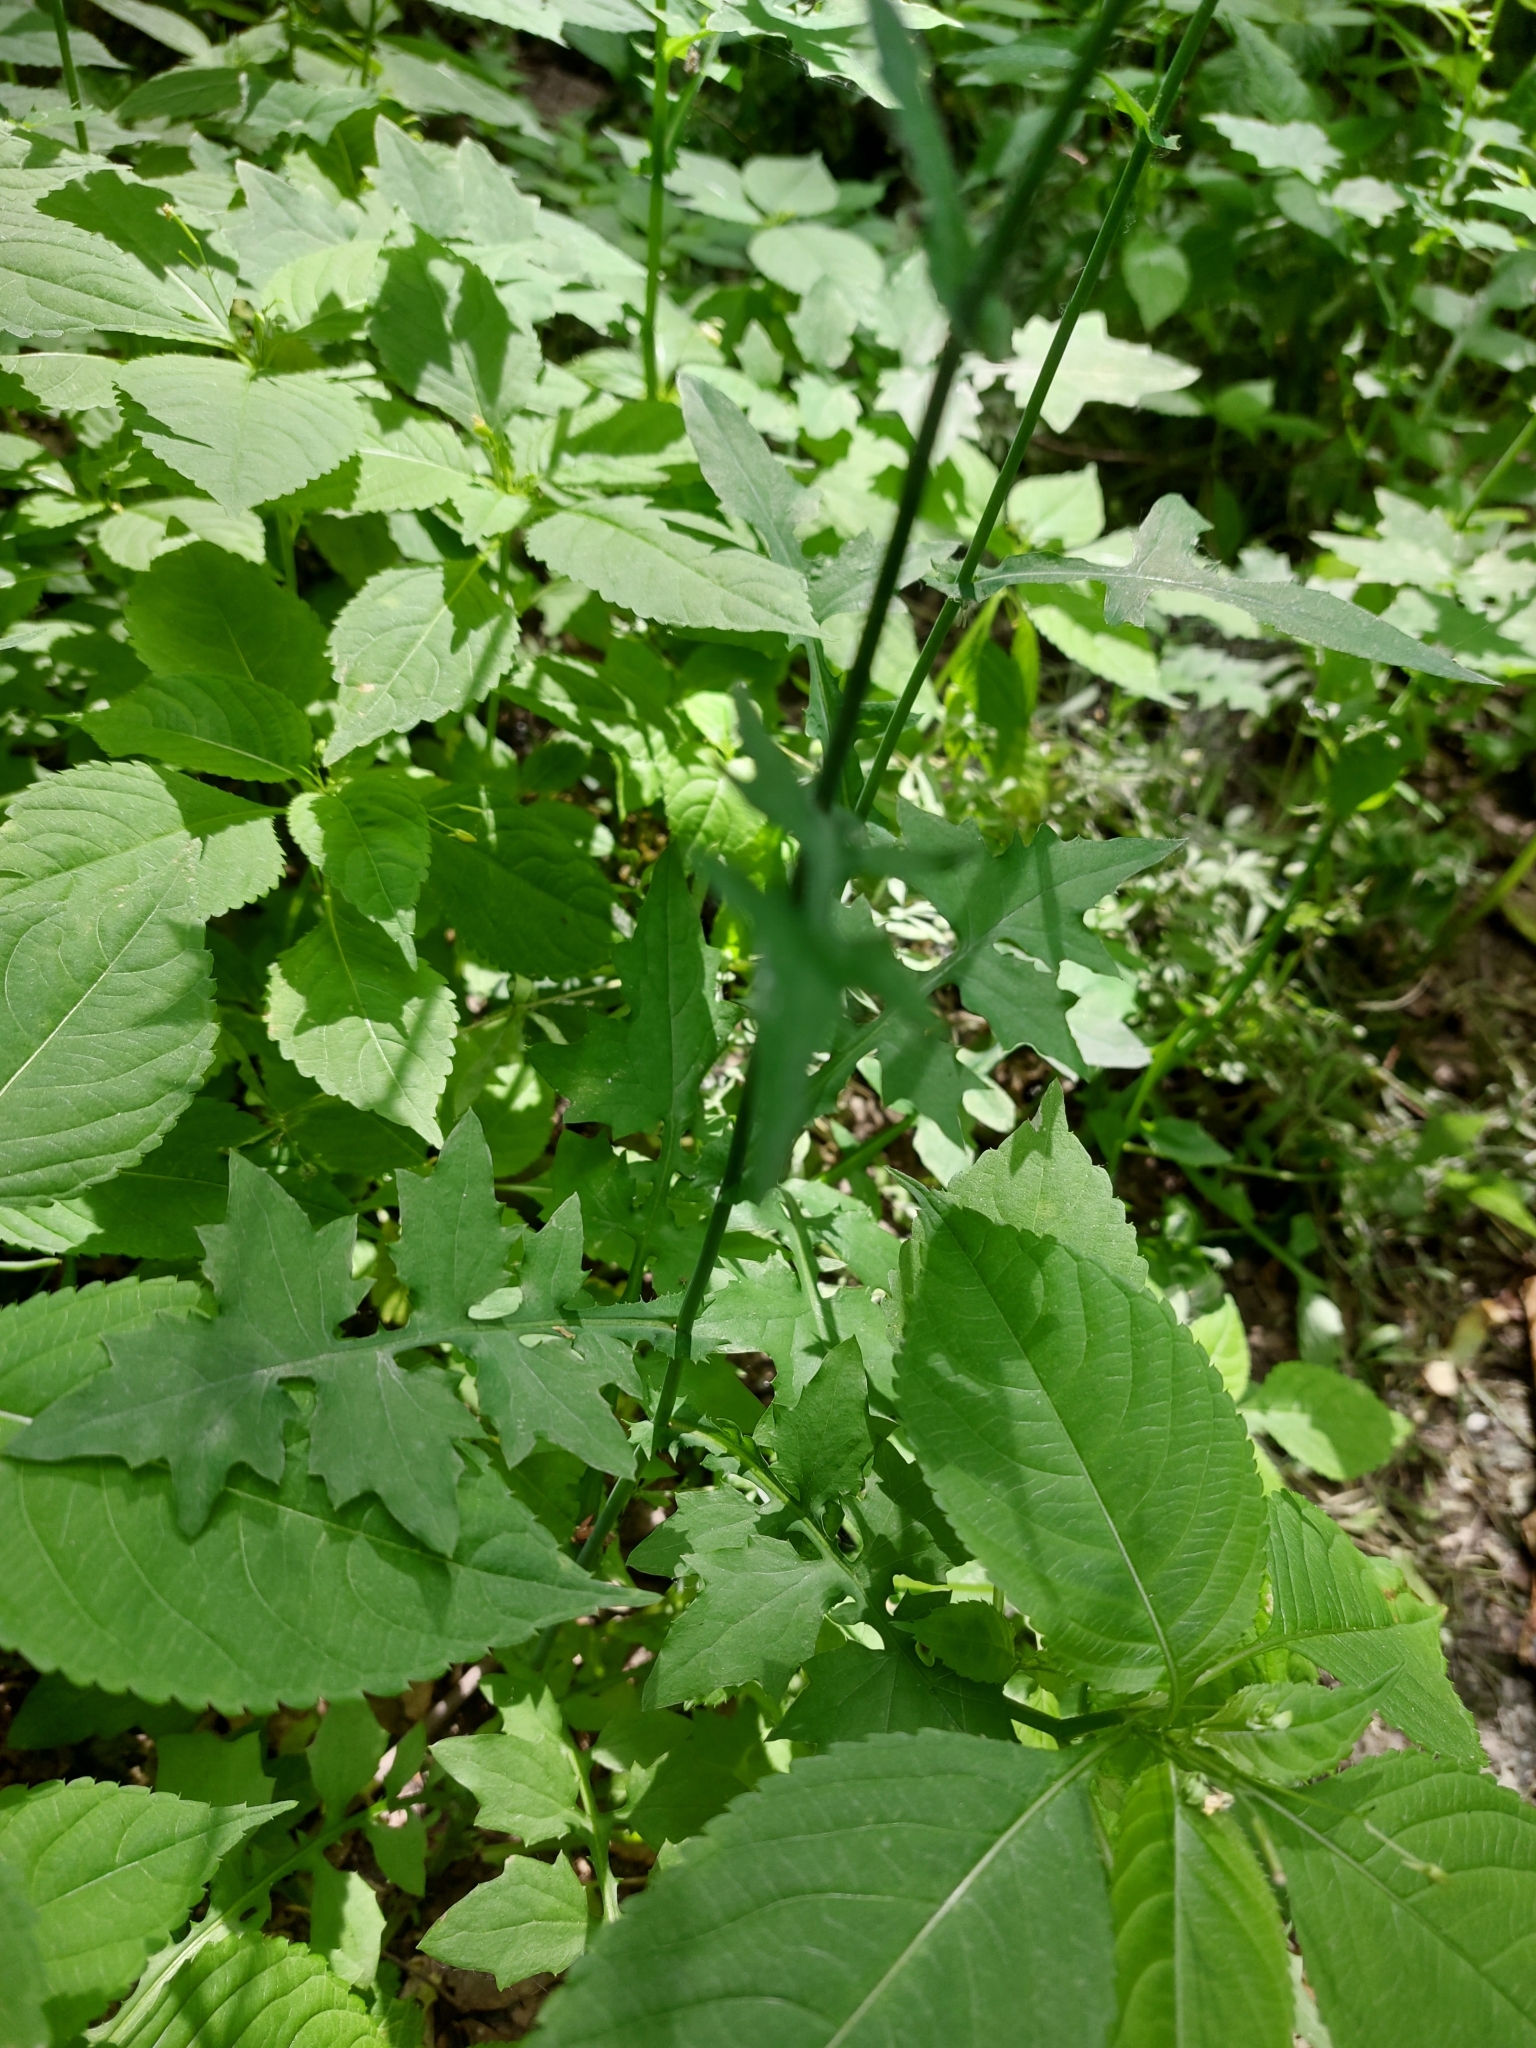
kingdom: Plantae
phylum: Tracheophyta
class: Magnoliopsida
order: Asterales
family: Asteraceae
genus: Mycelis
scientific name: Mycelis muralis
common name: Wall lettuce
